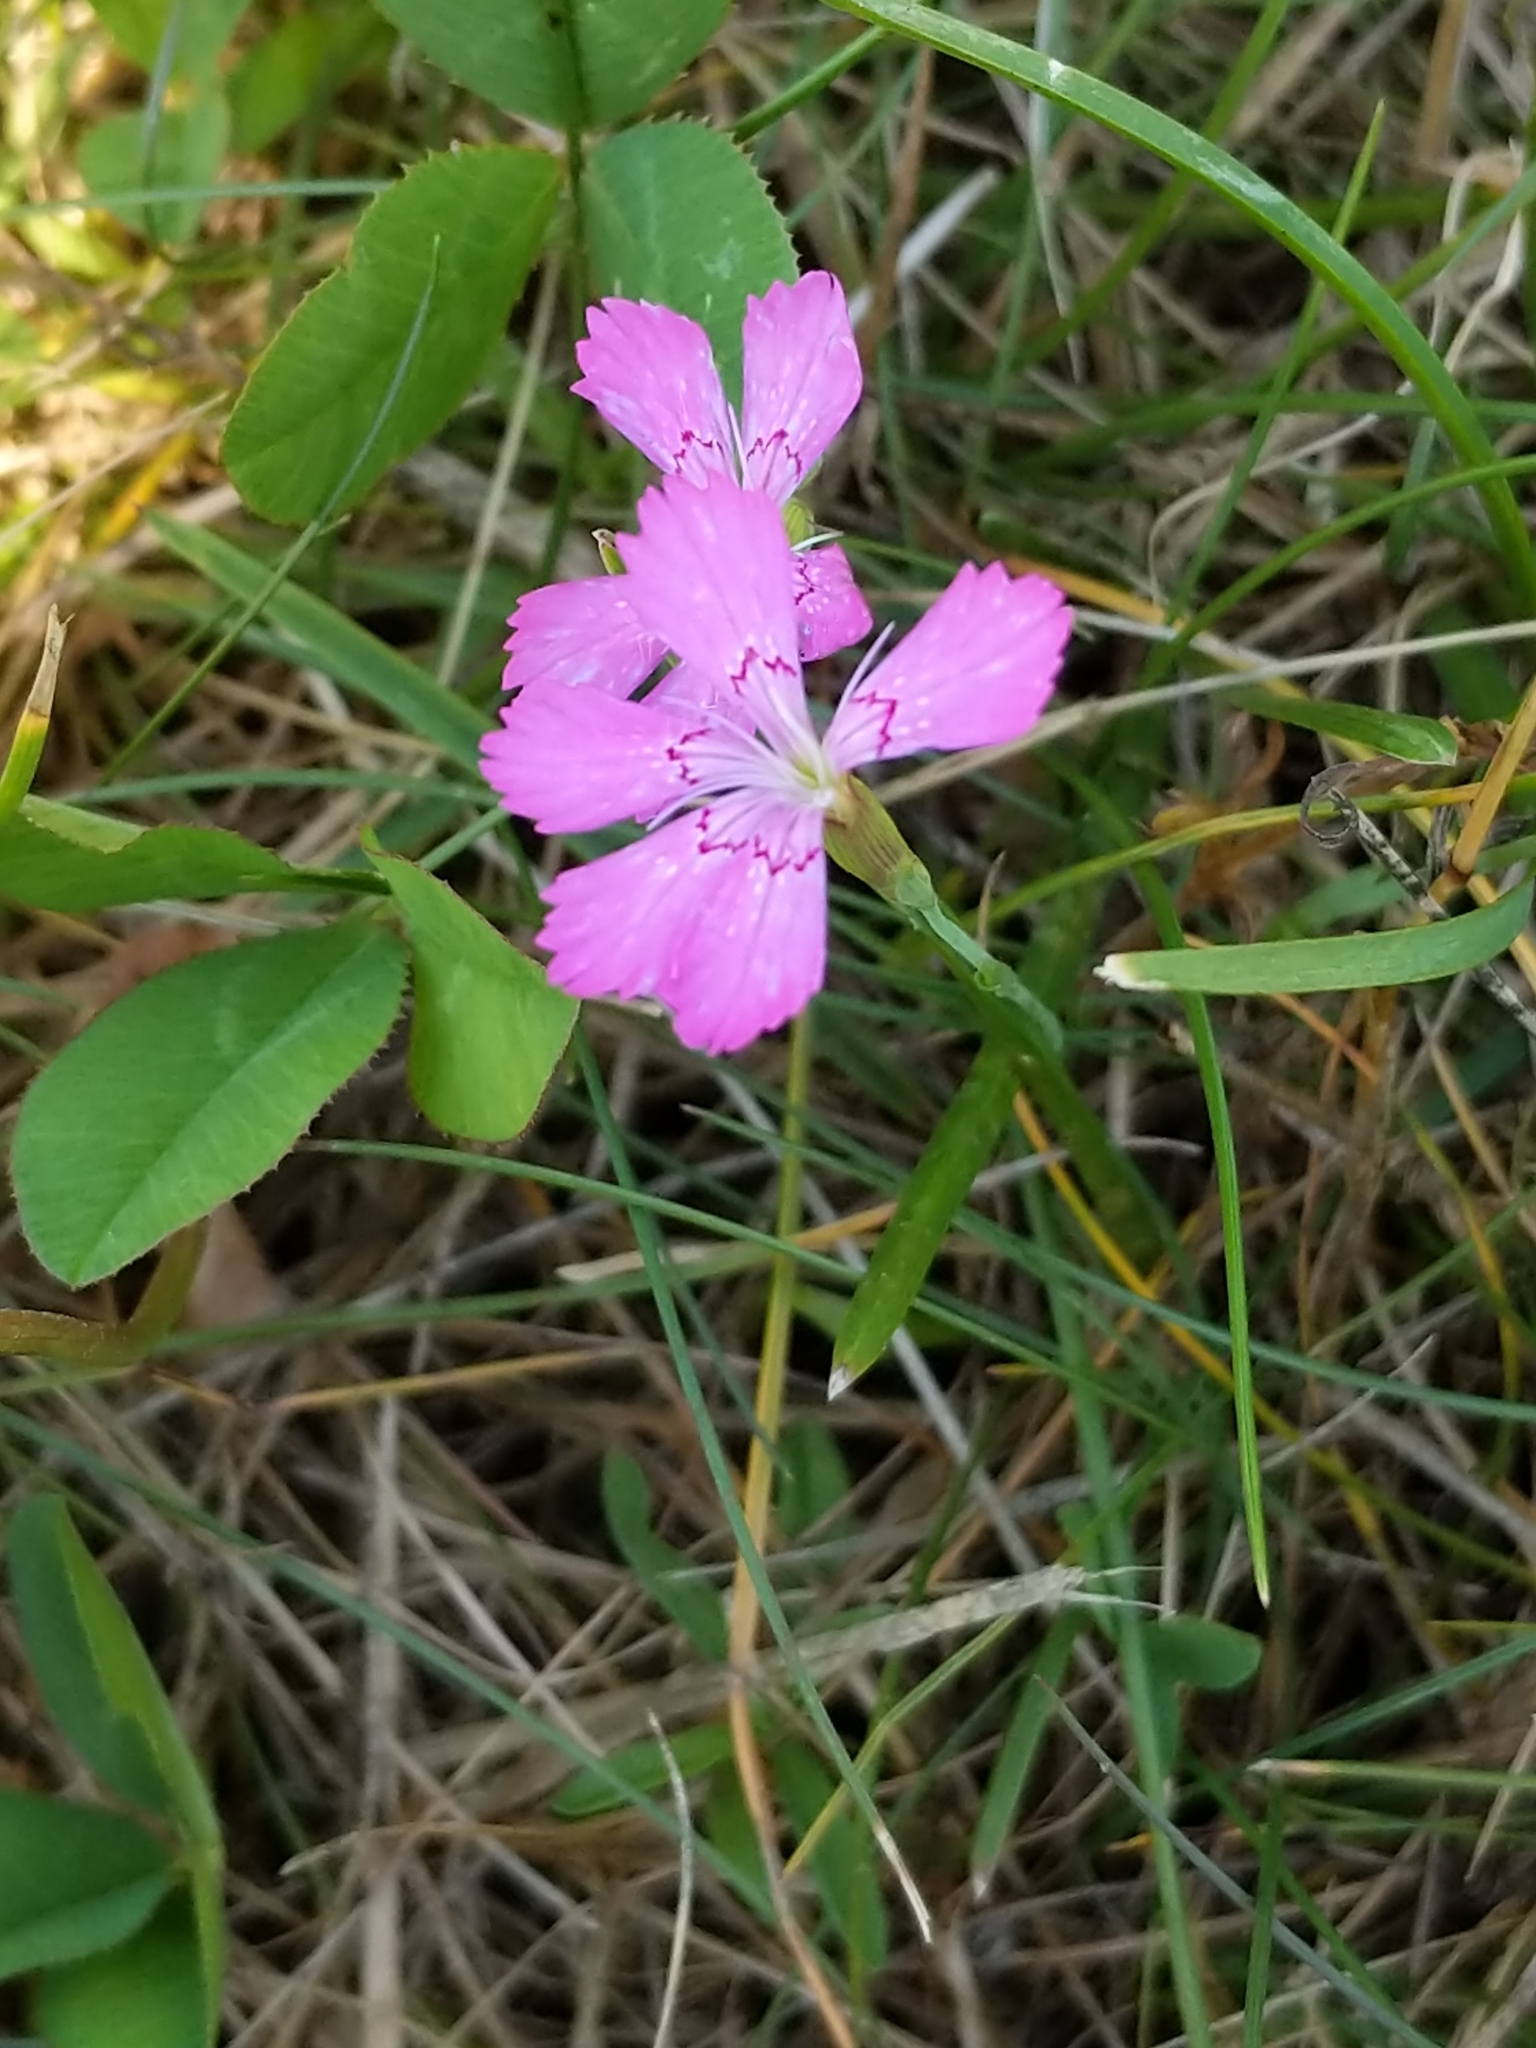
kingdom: Plantae
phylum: Tracheophyta
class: Magnoliopsida
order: Caryophyllales
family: Caryophyllaceae
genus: Dianthus
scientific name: Dianthus deltoides
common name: Maiden pink
